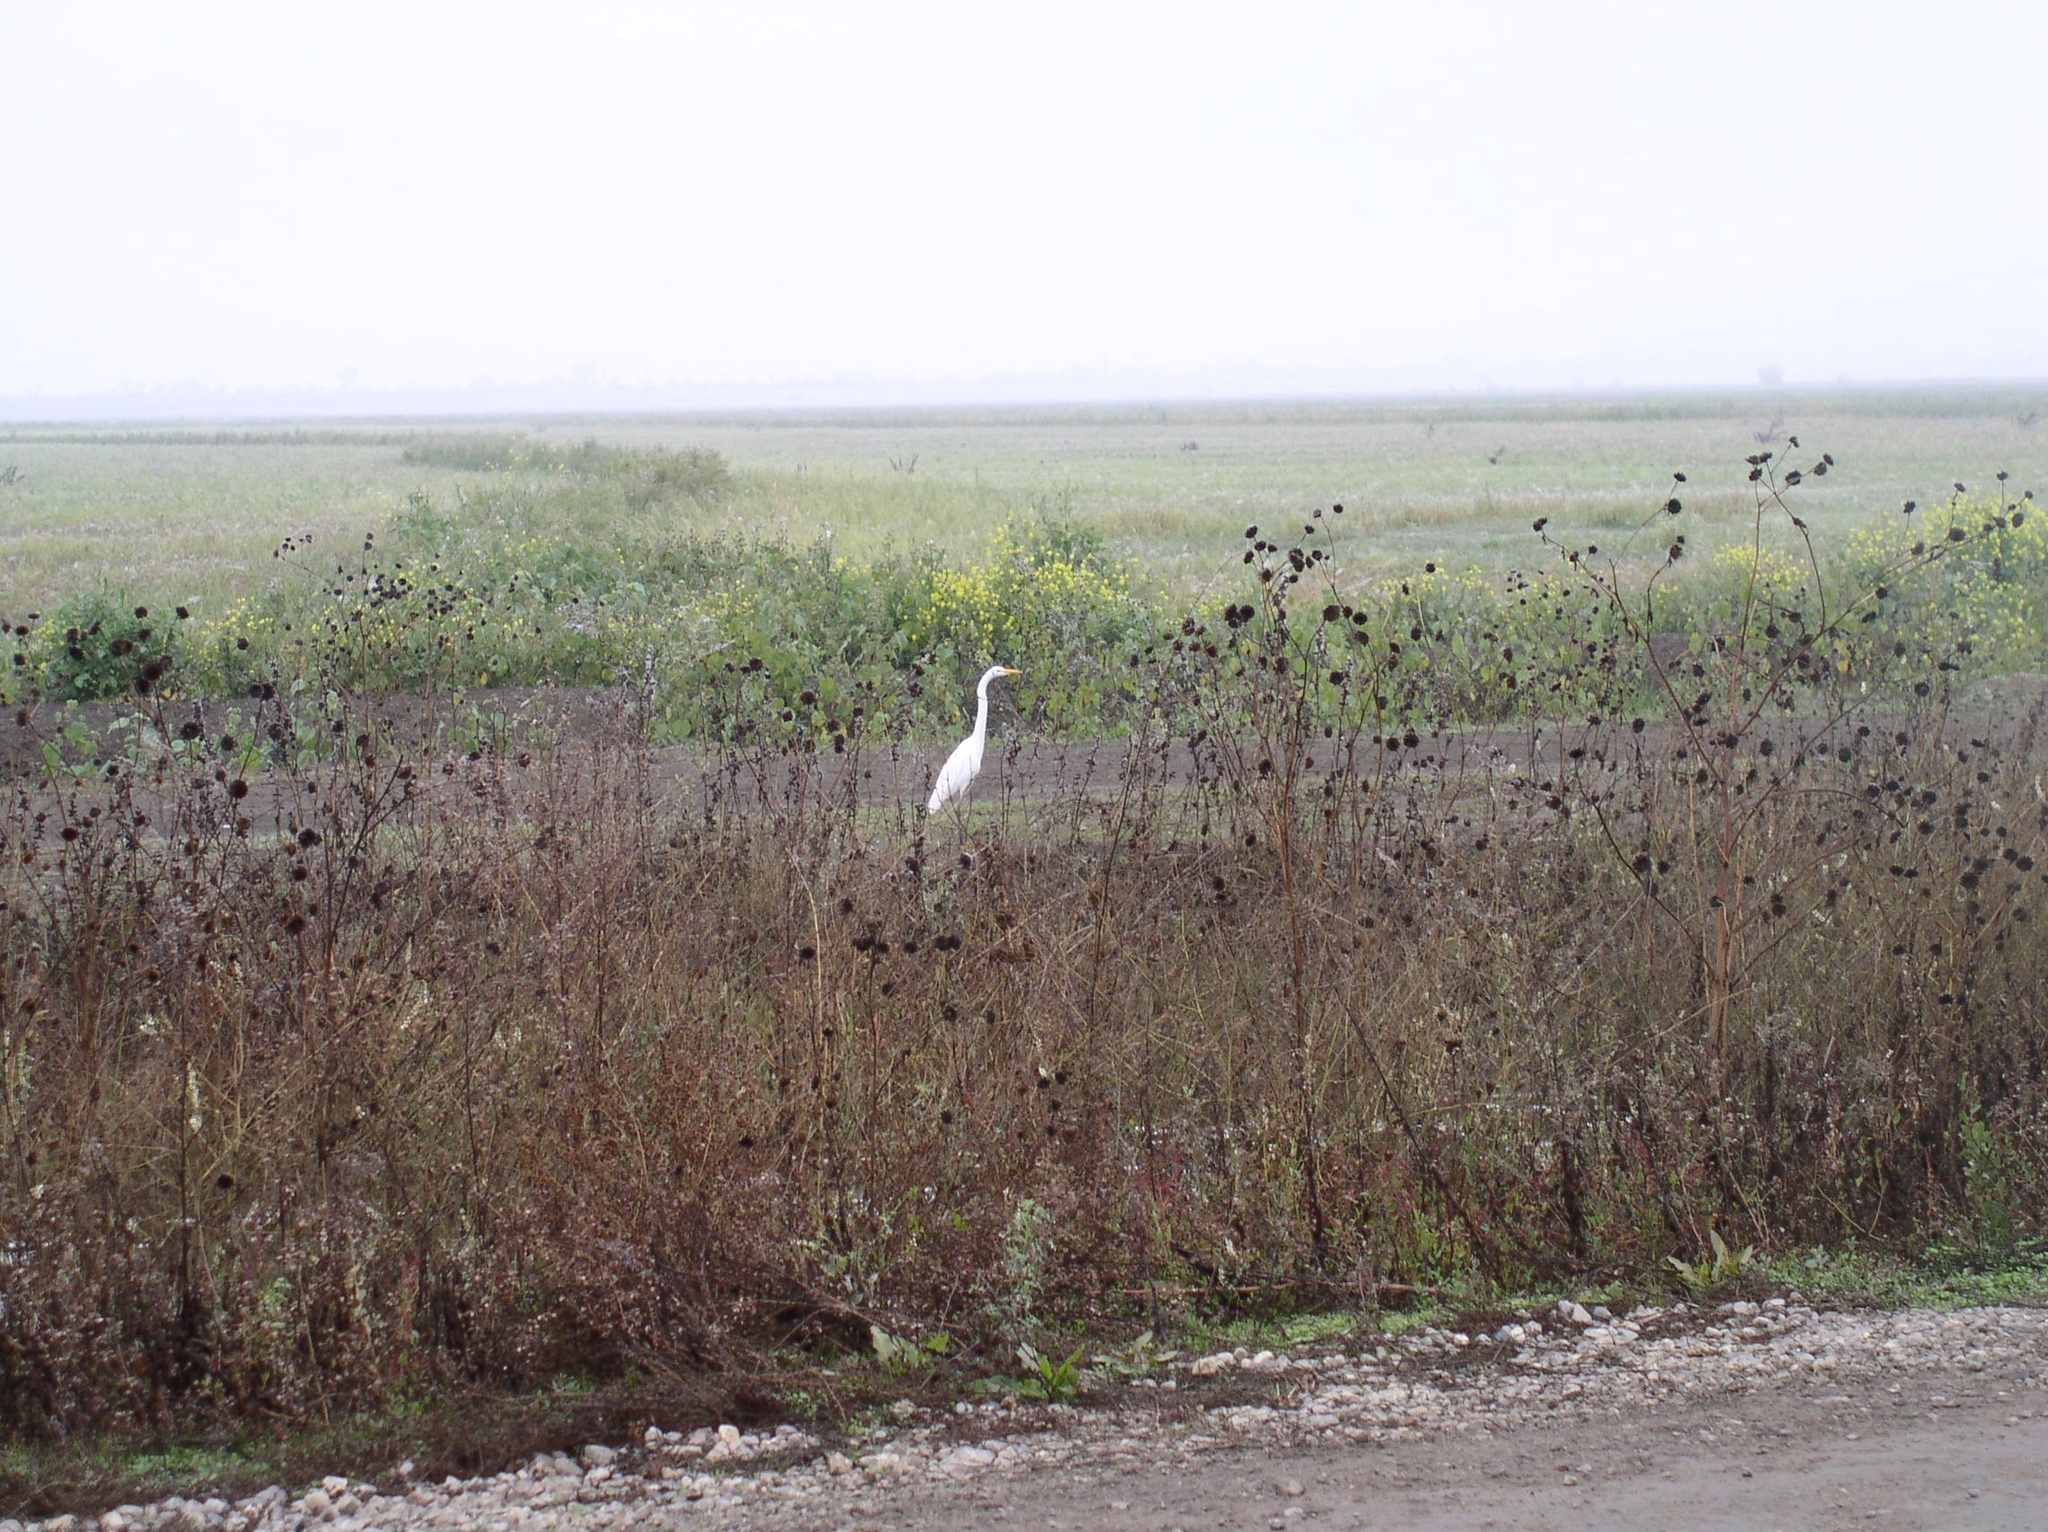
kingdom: Animalia
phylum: Chordata
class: Aves
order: Pelecaniformes
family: Ardeidae
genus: Ardea
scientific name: Ardea alba
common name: Great egret
